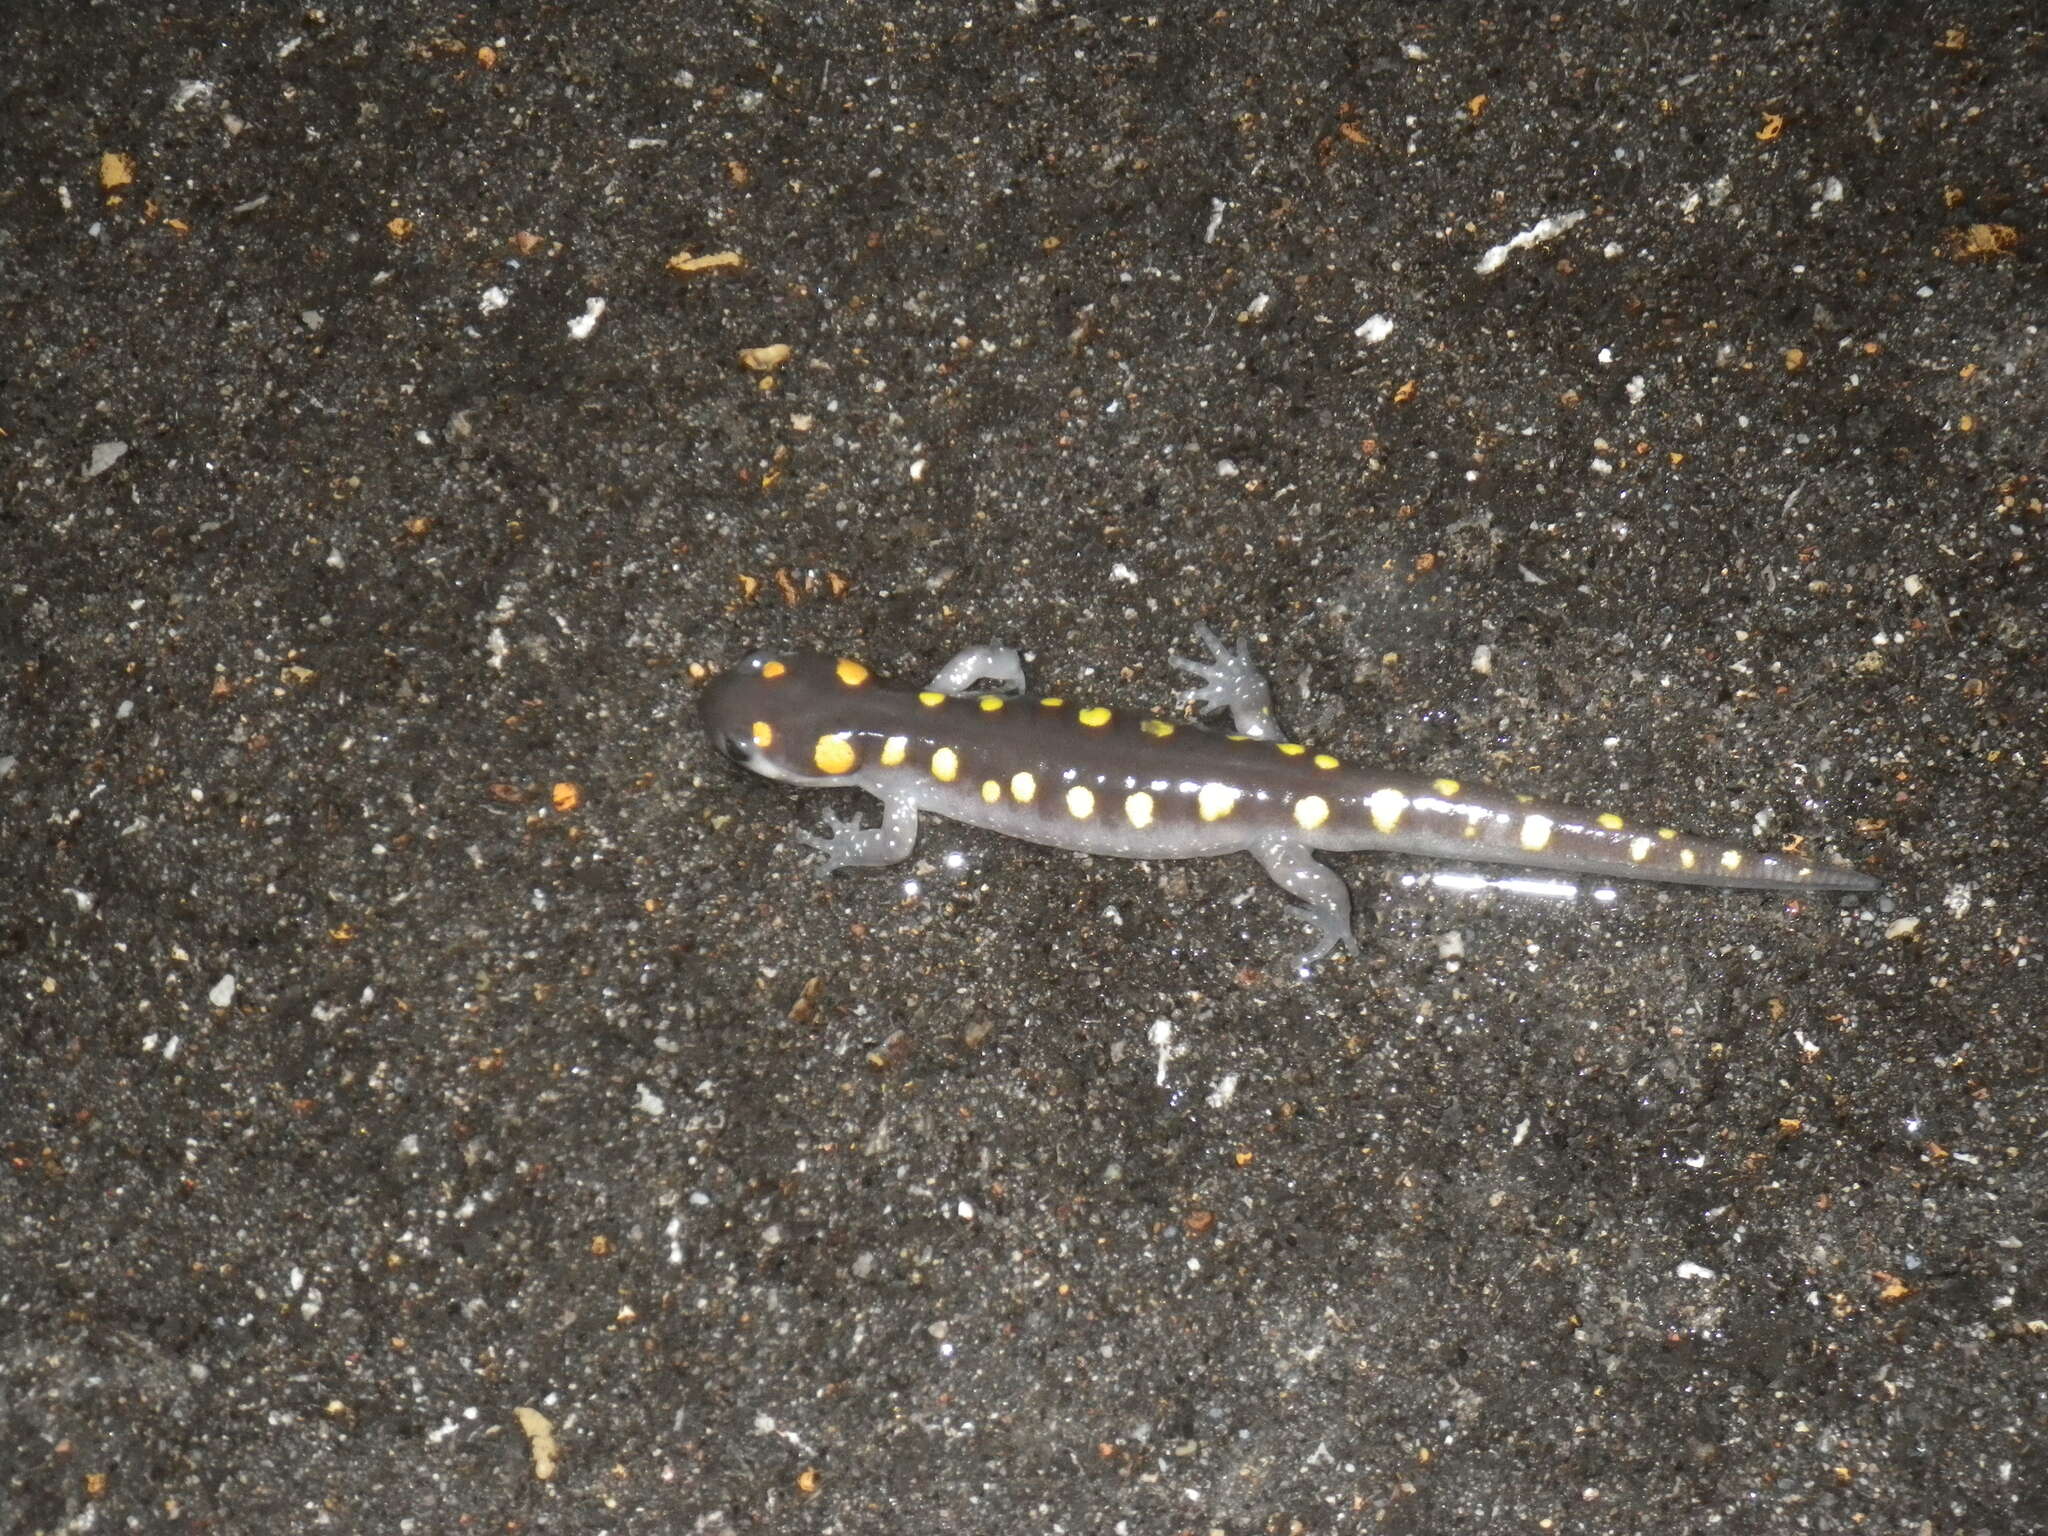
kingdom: Animalia
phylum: Chordata
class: Amphibia
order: Caudata
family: Ambystomatidae
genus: Ambystoma
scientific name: Ambystoma maculatum
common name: Spotted salamander
